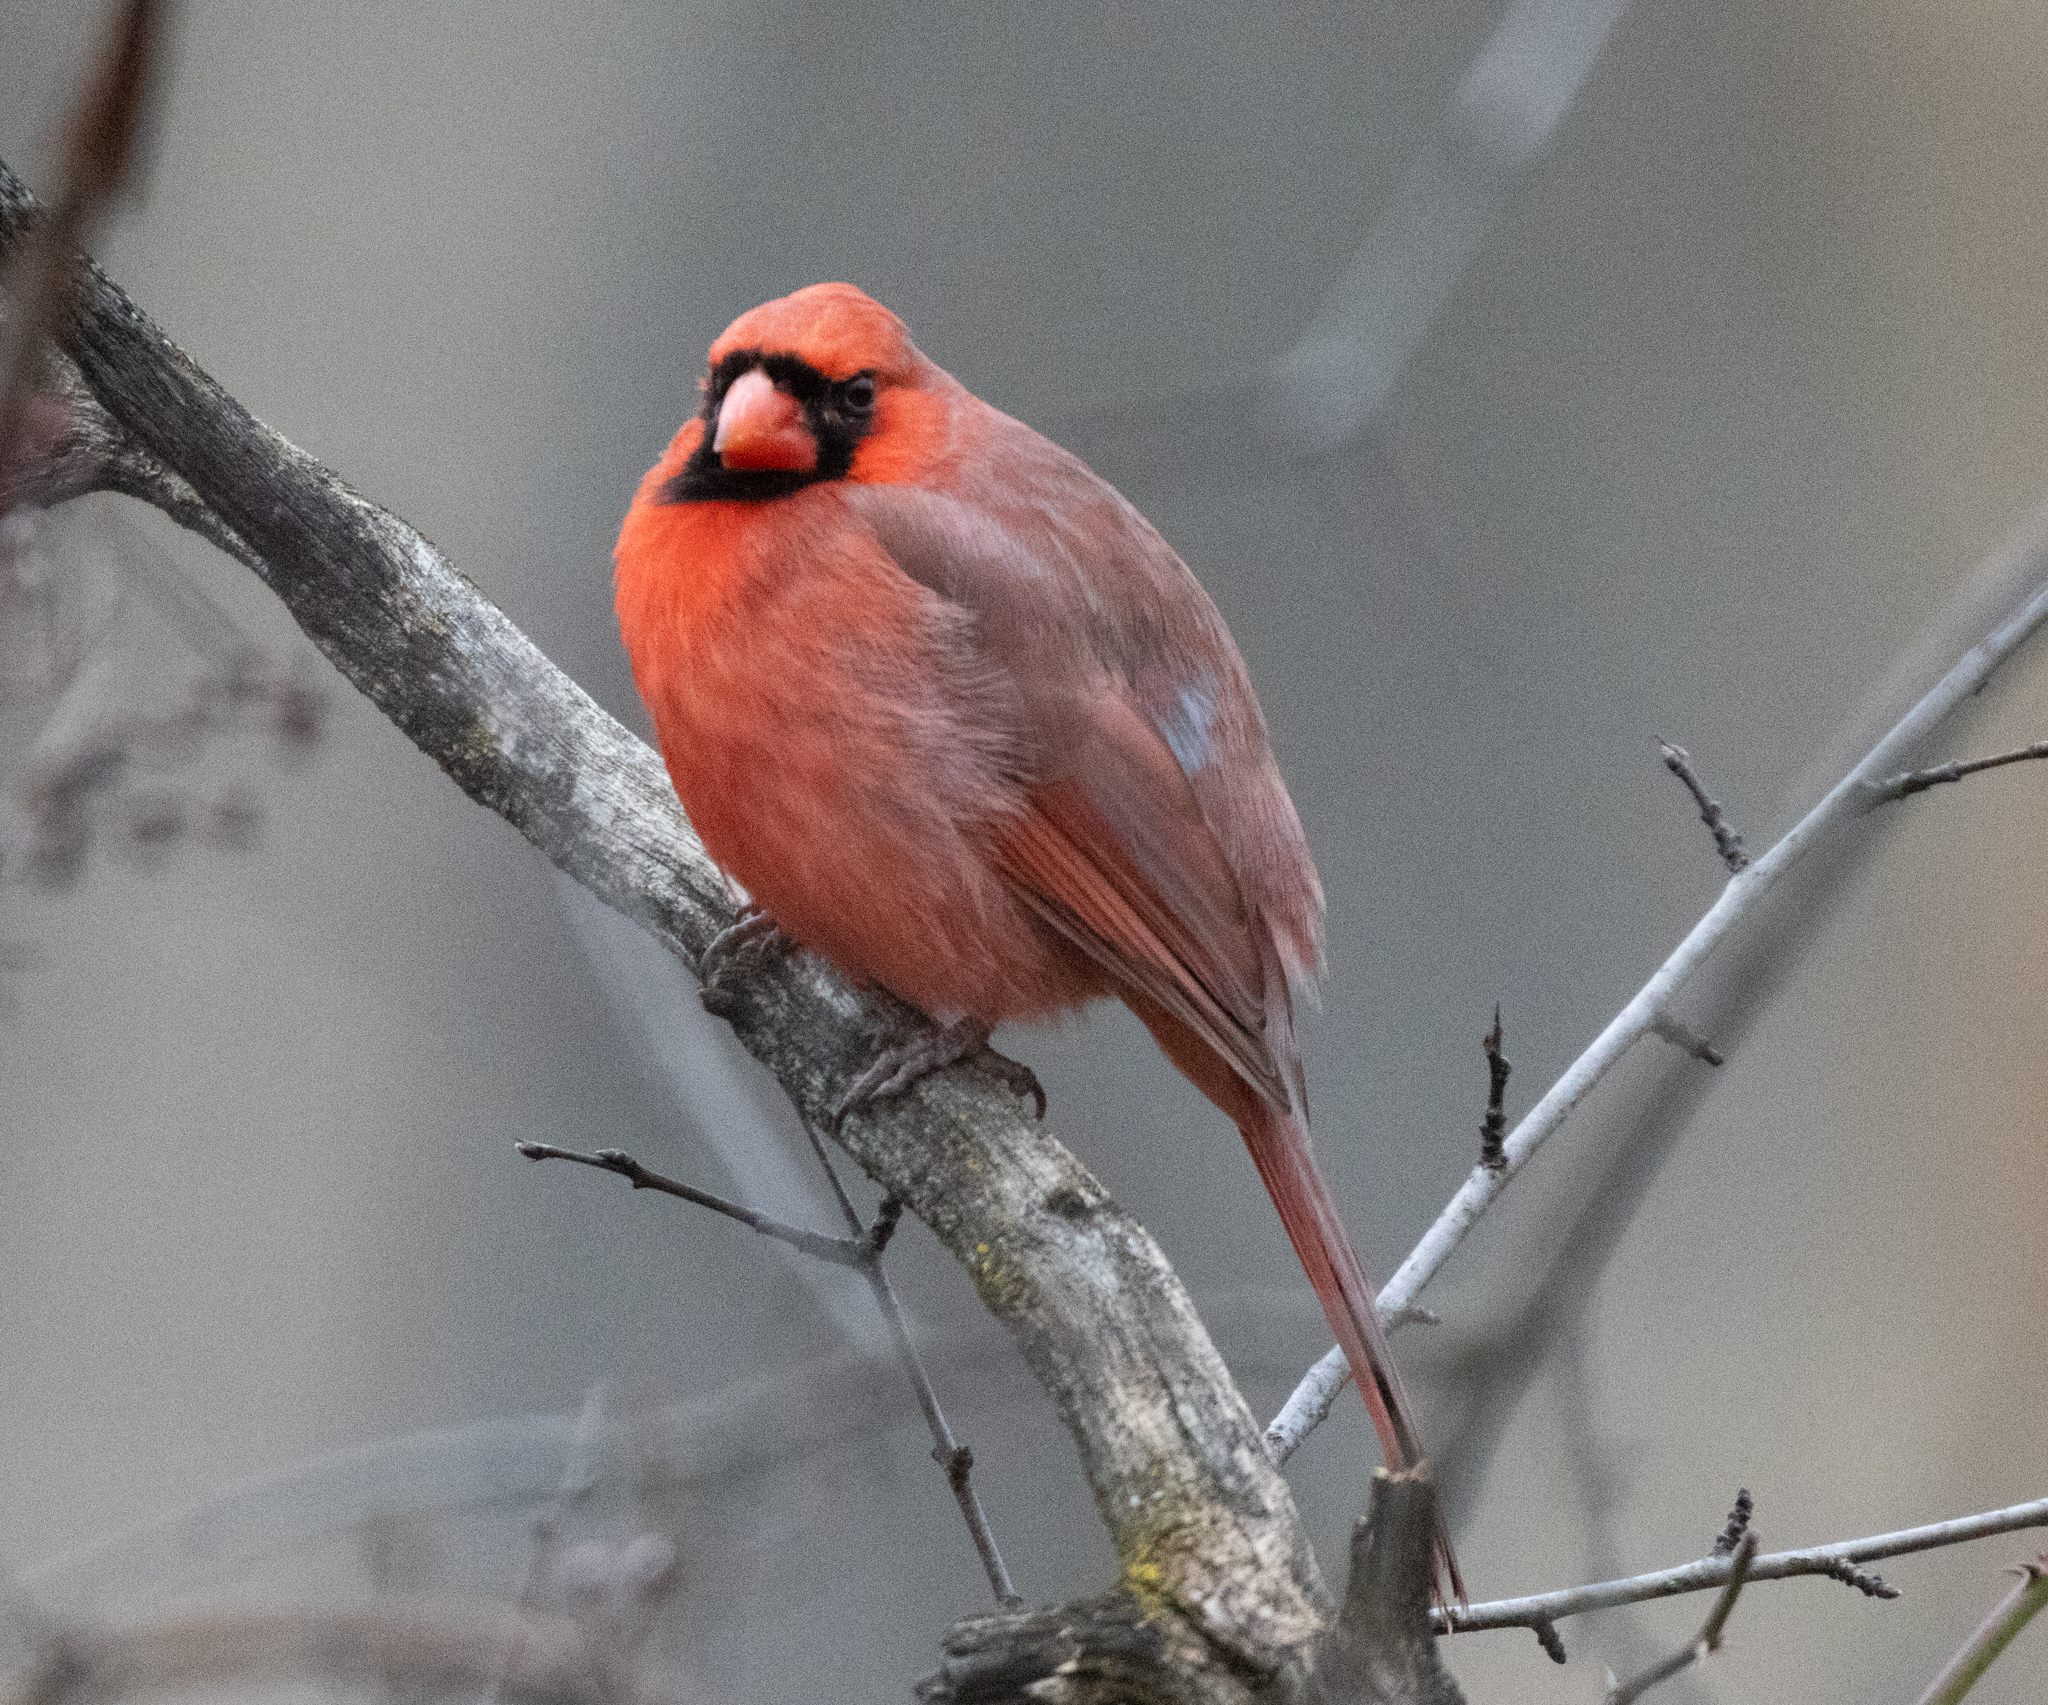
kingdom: Animalia
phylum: Chordata
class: Aves
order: Passeriformes
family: Cardinalidae
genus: Cardinalis
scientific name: Cardinalis cardinalis
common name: Northern cardinal
